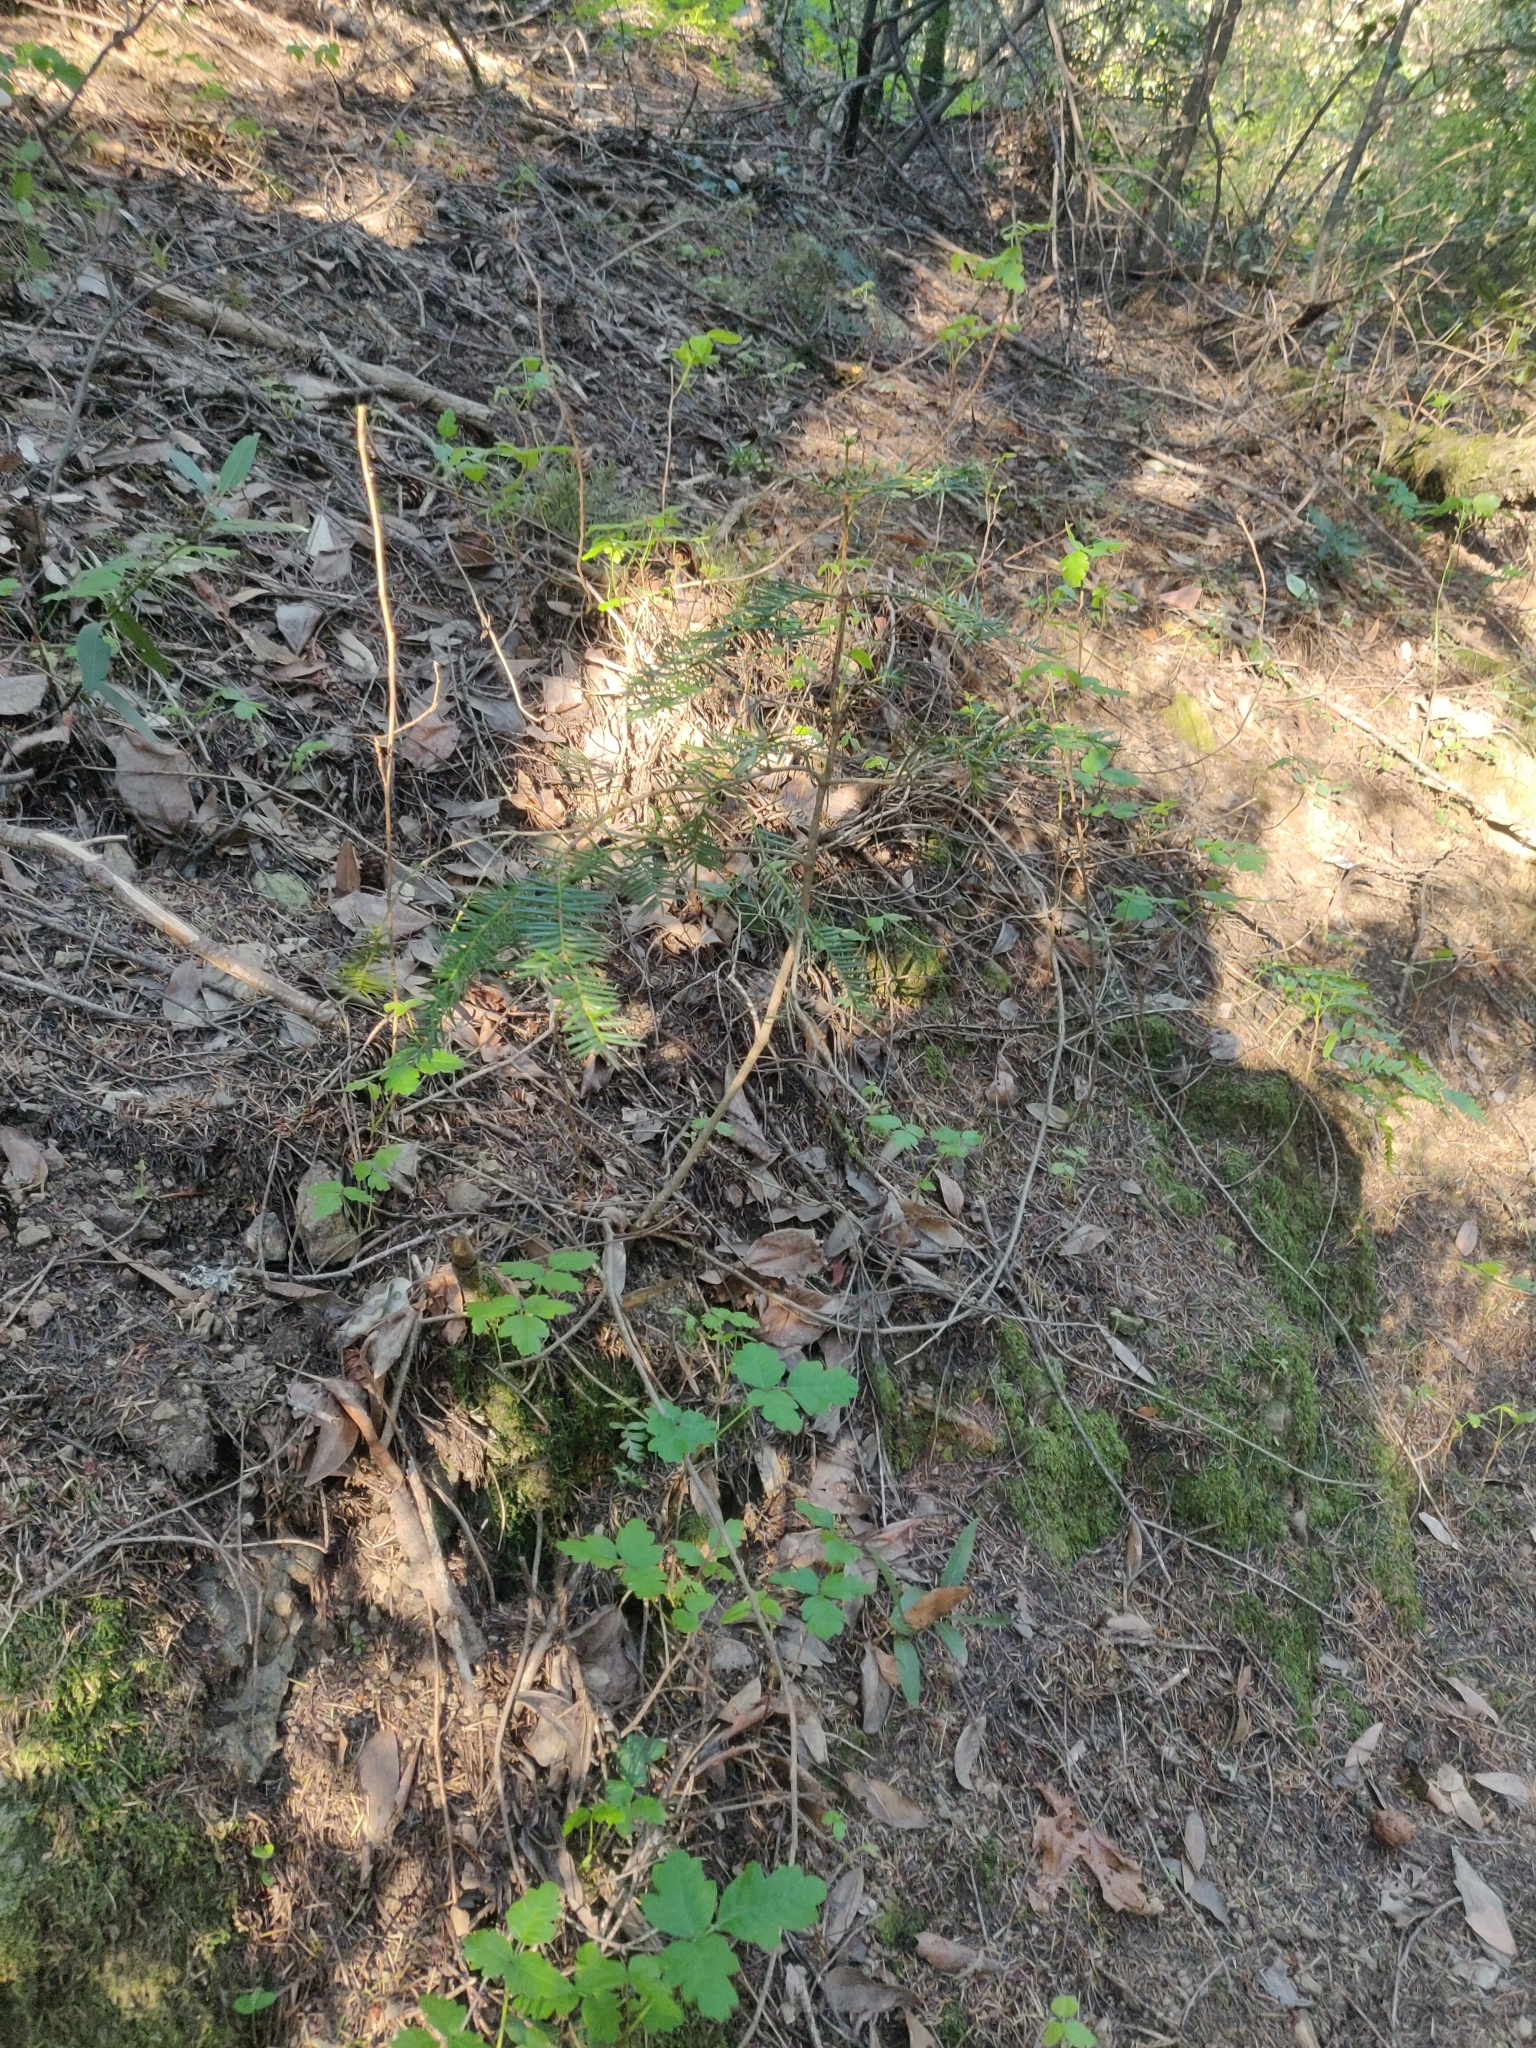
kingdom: Plantae
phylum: Tracheophyta
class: Pinopsida
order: Pinales
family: Taxaceae
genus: Torreya
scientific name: Torreya californica
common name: California torreya
